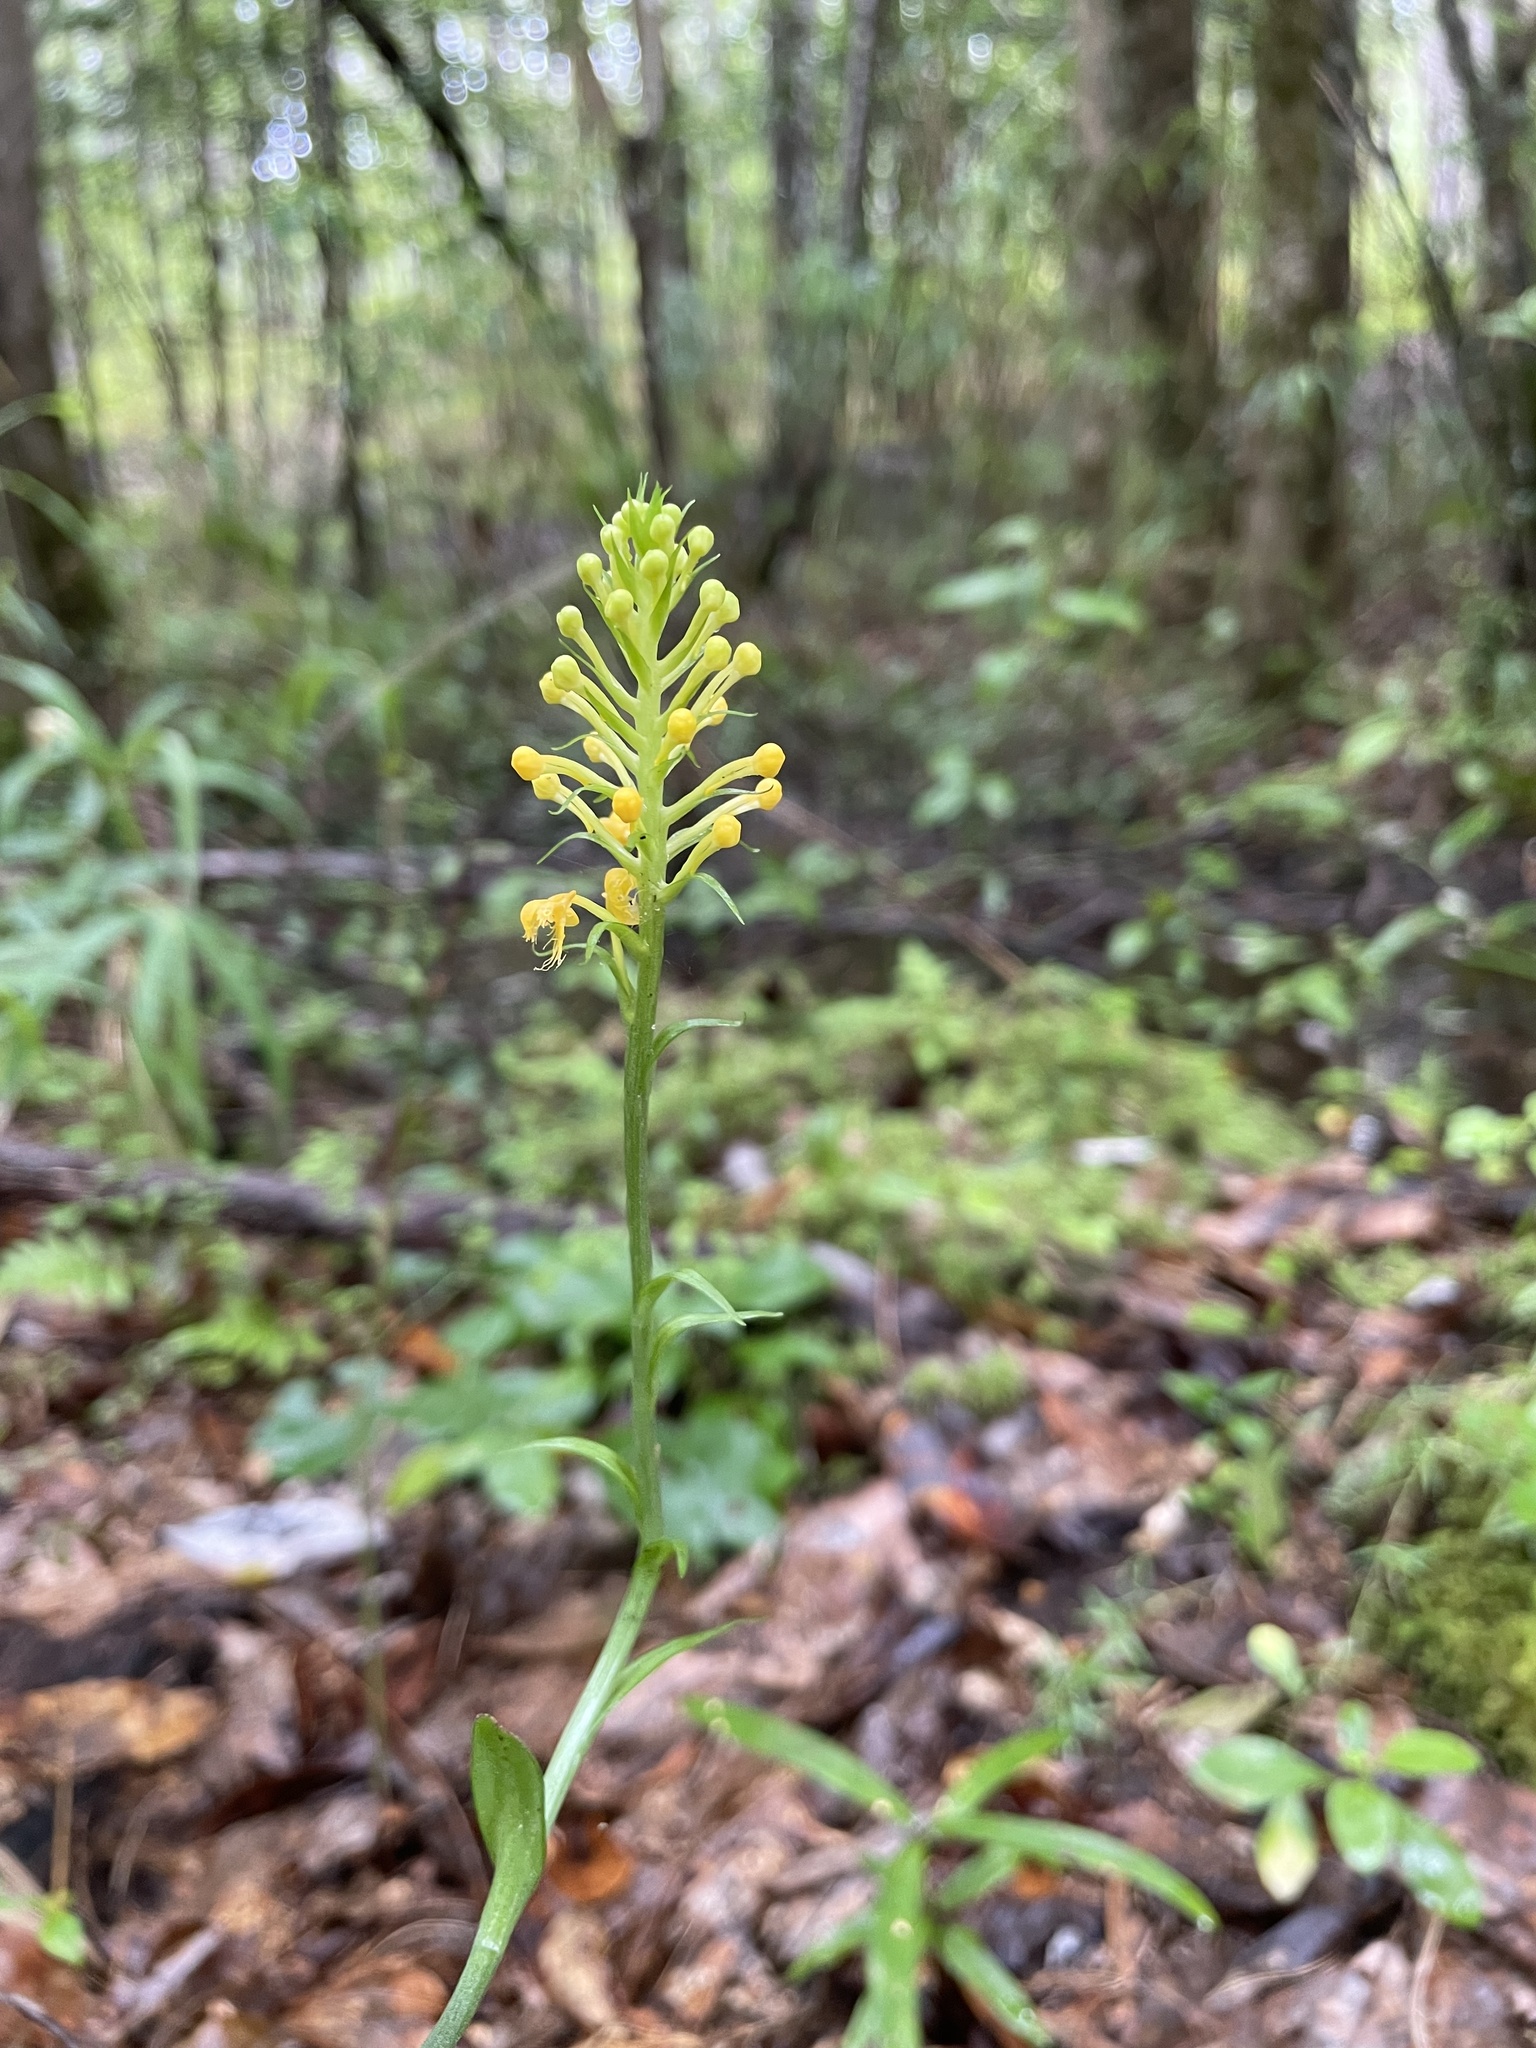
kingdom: Plantae
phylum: Tracheophyta
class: Liliopsida
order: Asparagales
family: Orchidaceae
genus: Platanthera
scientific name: Platanthera cristata
